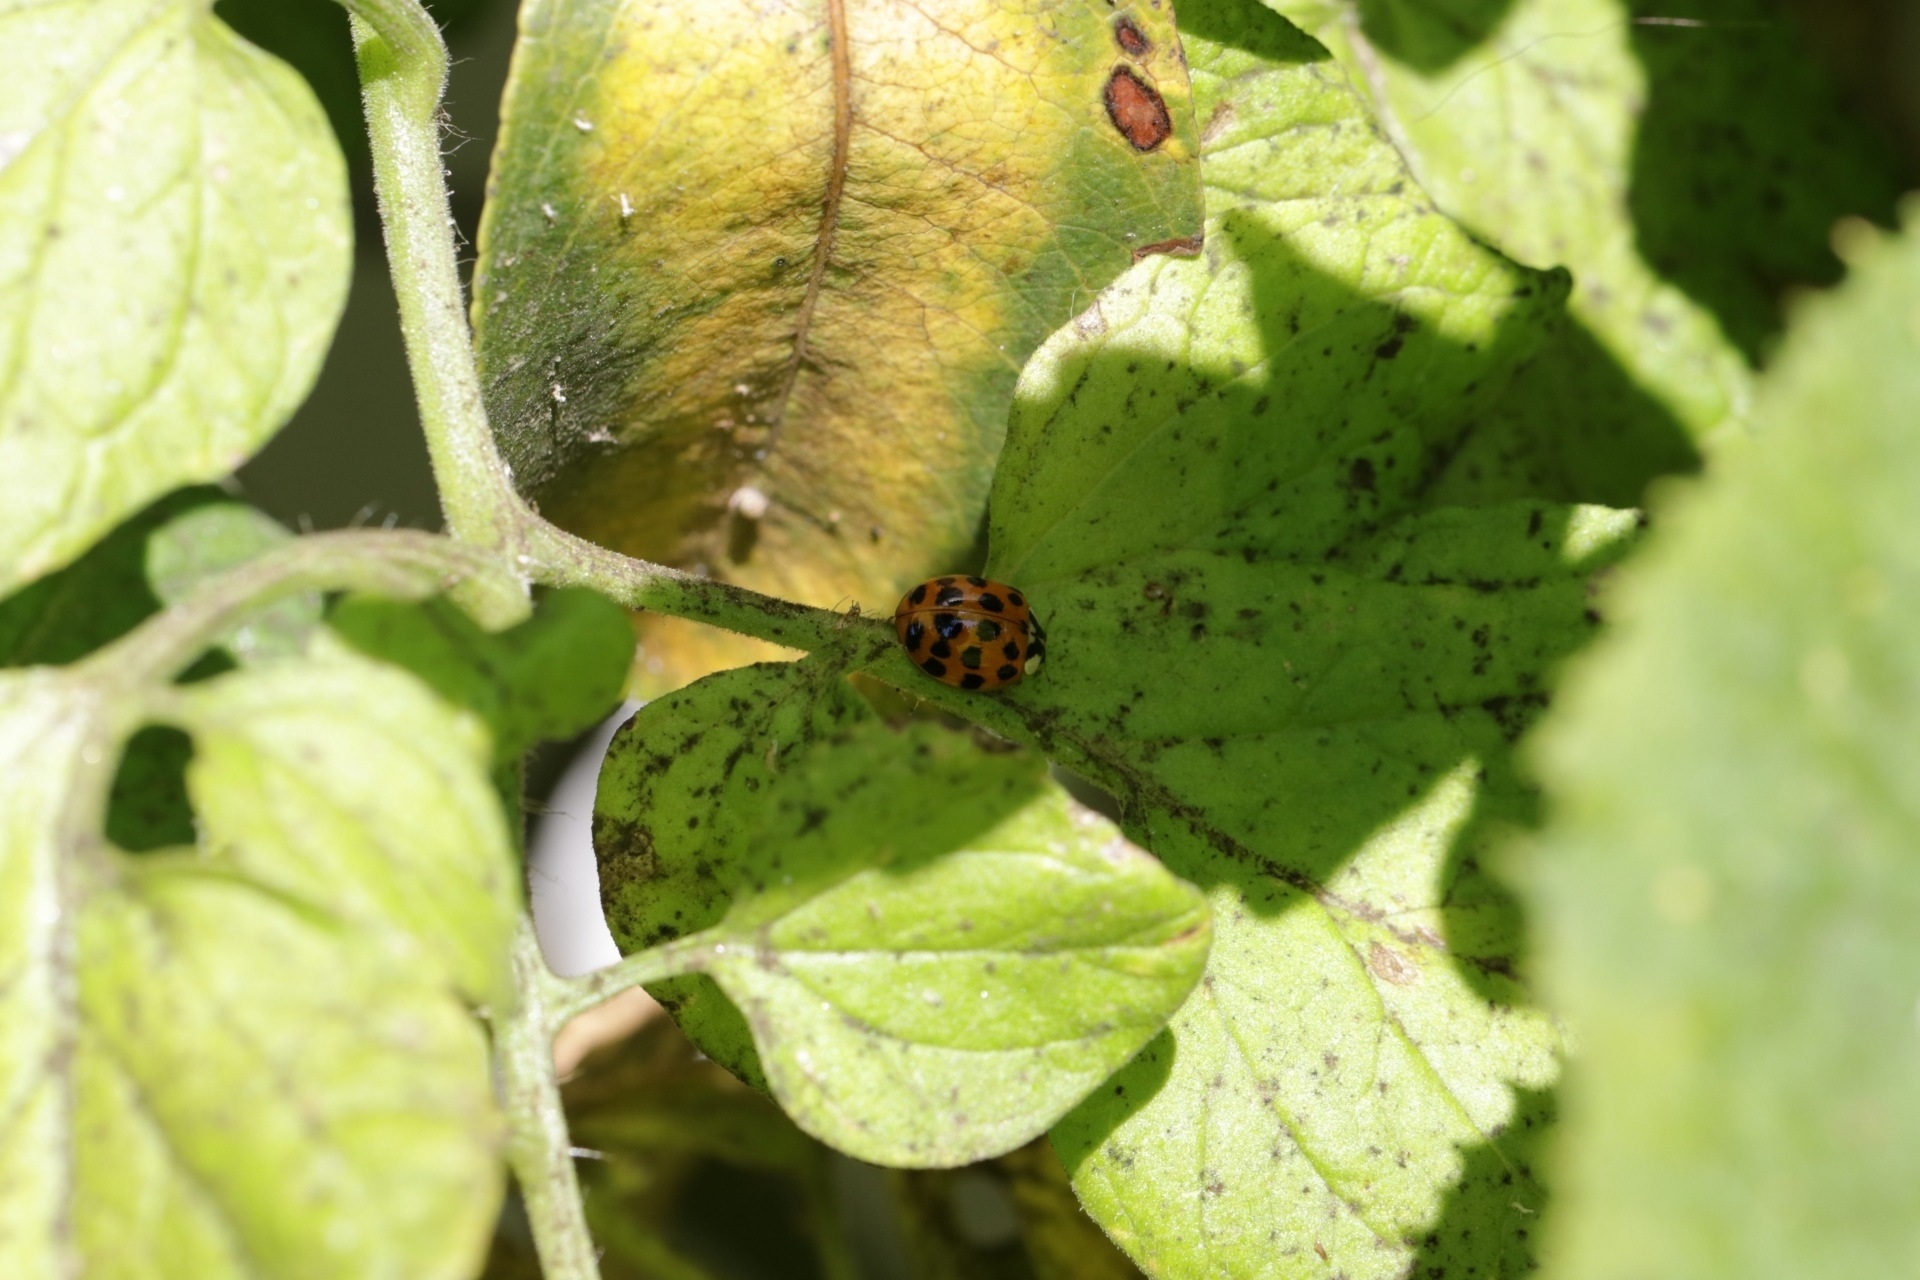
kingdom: Animalia
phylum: Arthropoda
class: Insecta
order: Coleoptera
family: Coccinellidae
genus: Harmonia
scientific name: Harmonia axyridis
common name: Harlequin ladybird
